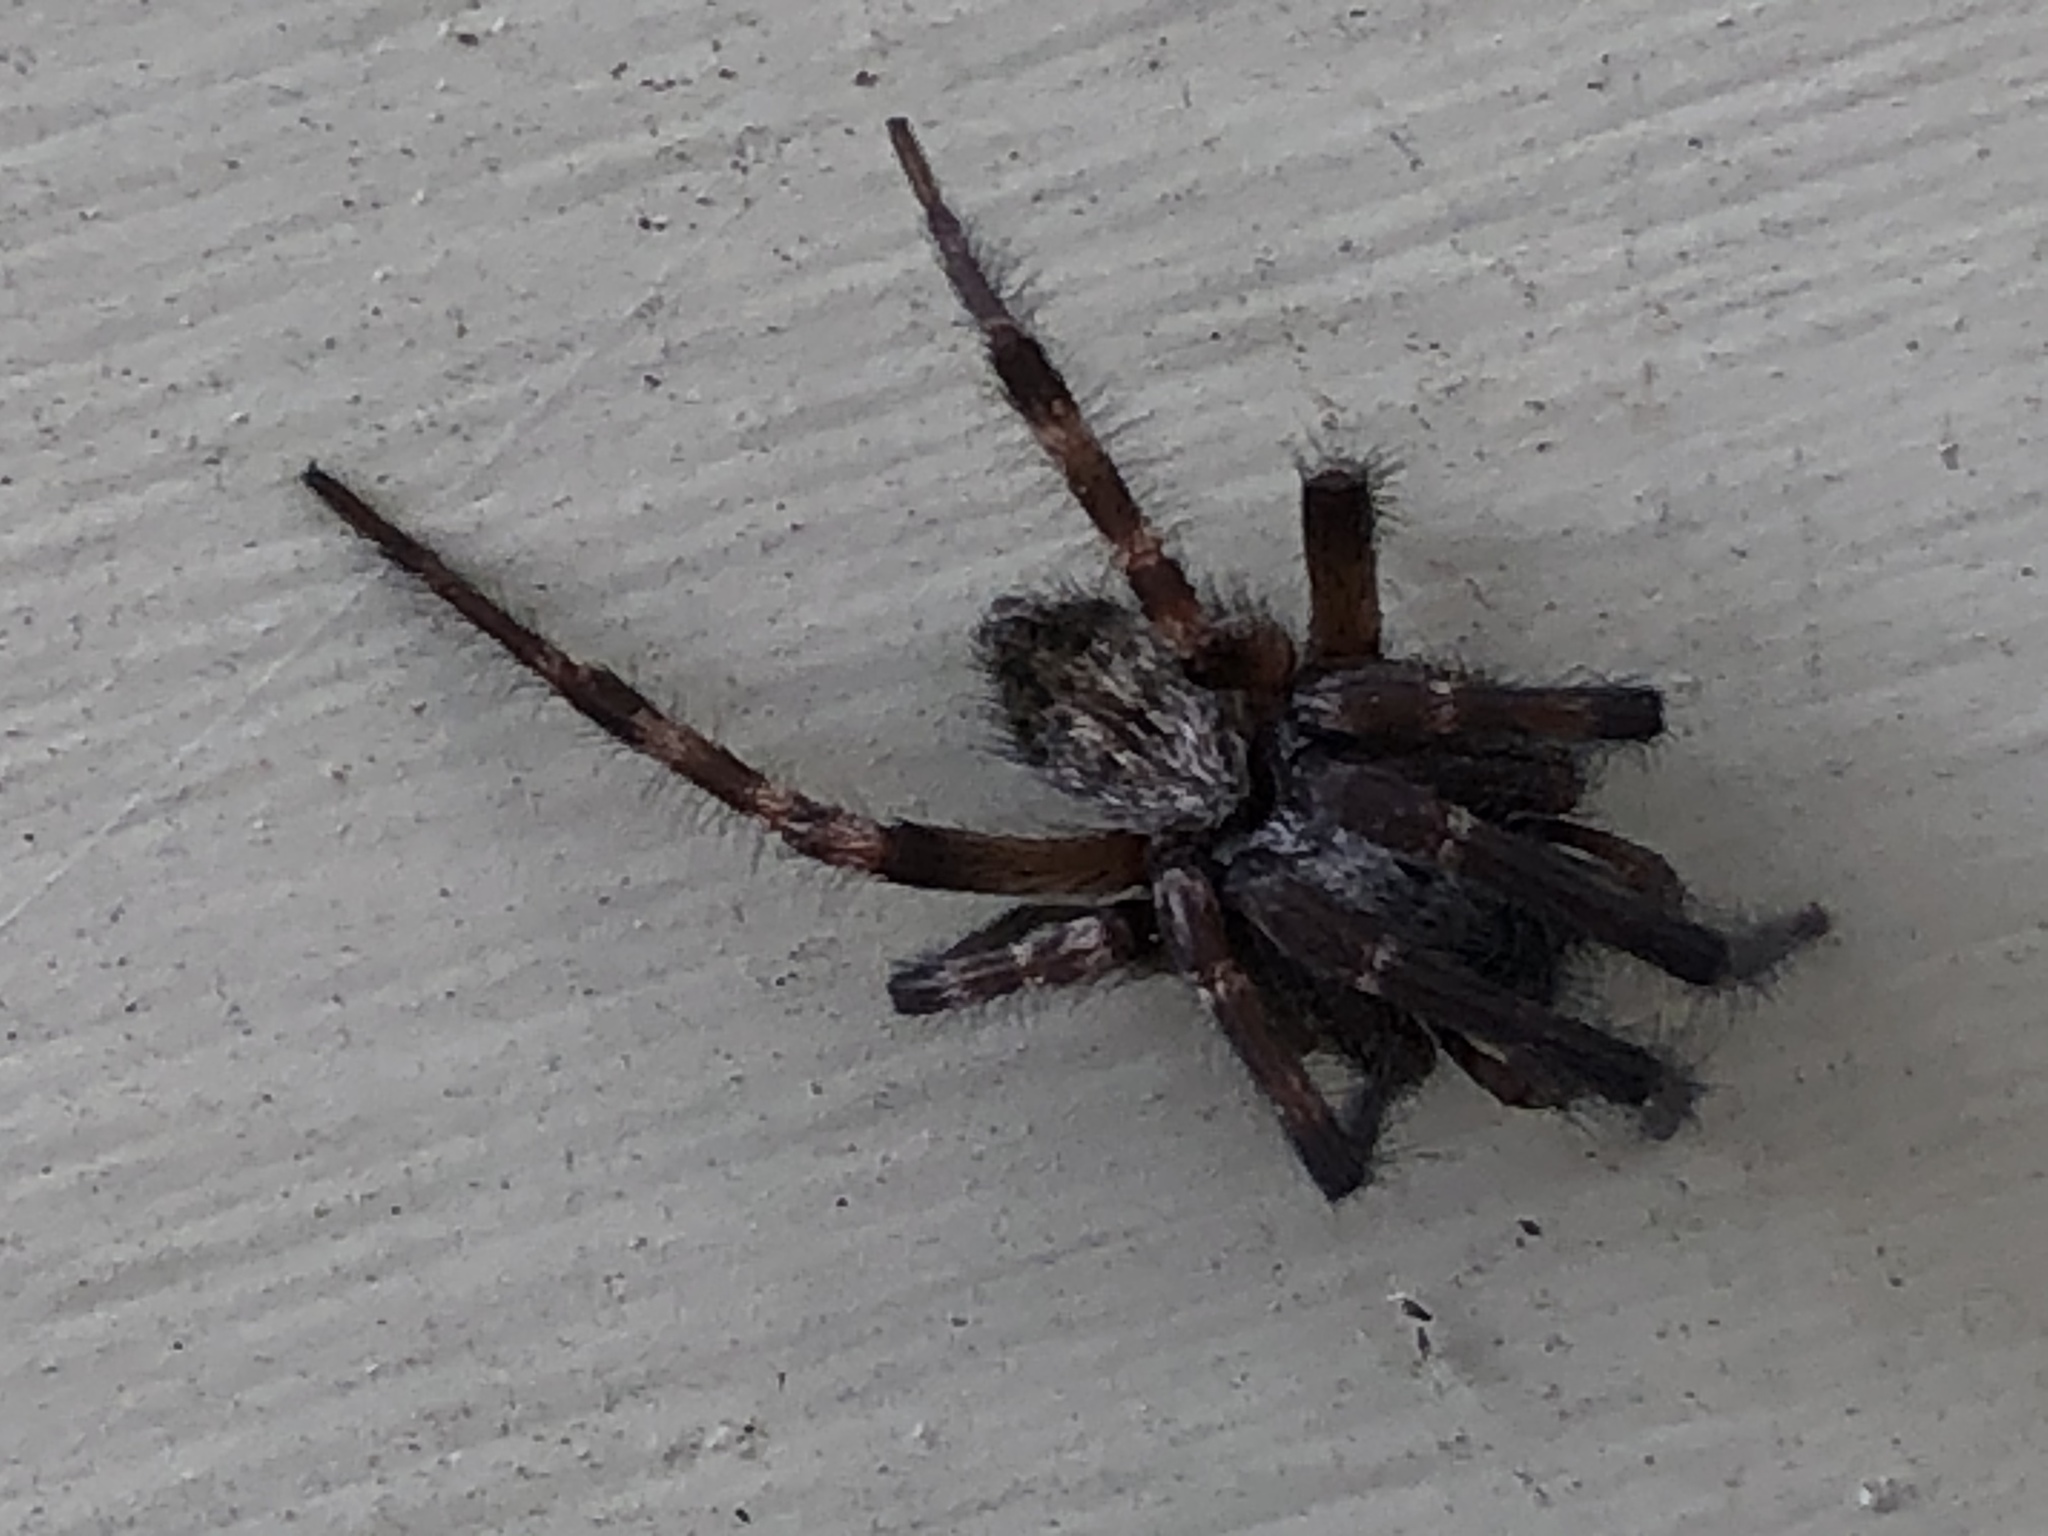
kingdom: Animalia
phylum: Arthropoda
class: Arachnida
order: Araneae
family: Desidae
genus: Badumna
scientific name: Badumna longinqua
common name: Gray house spider
